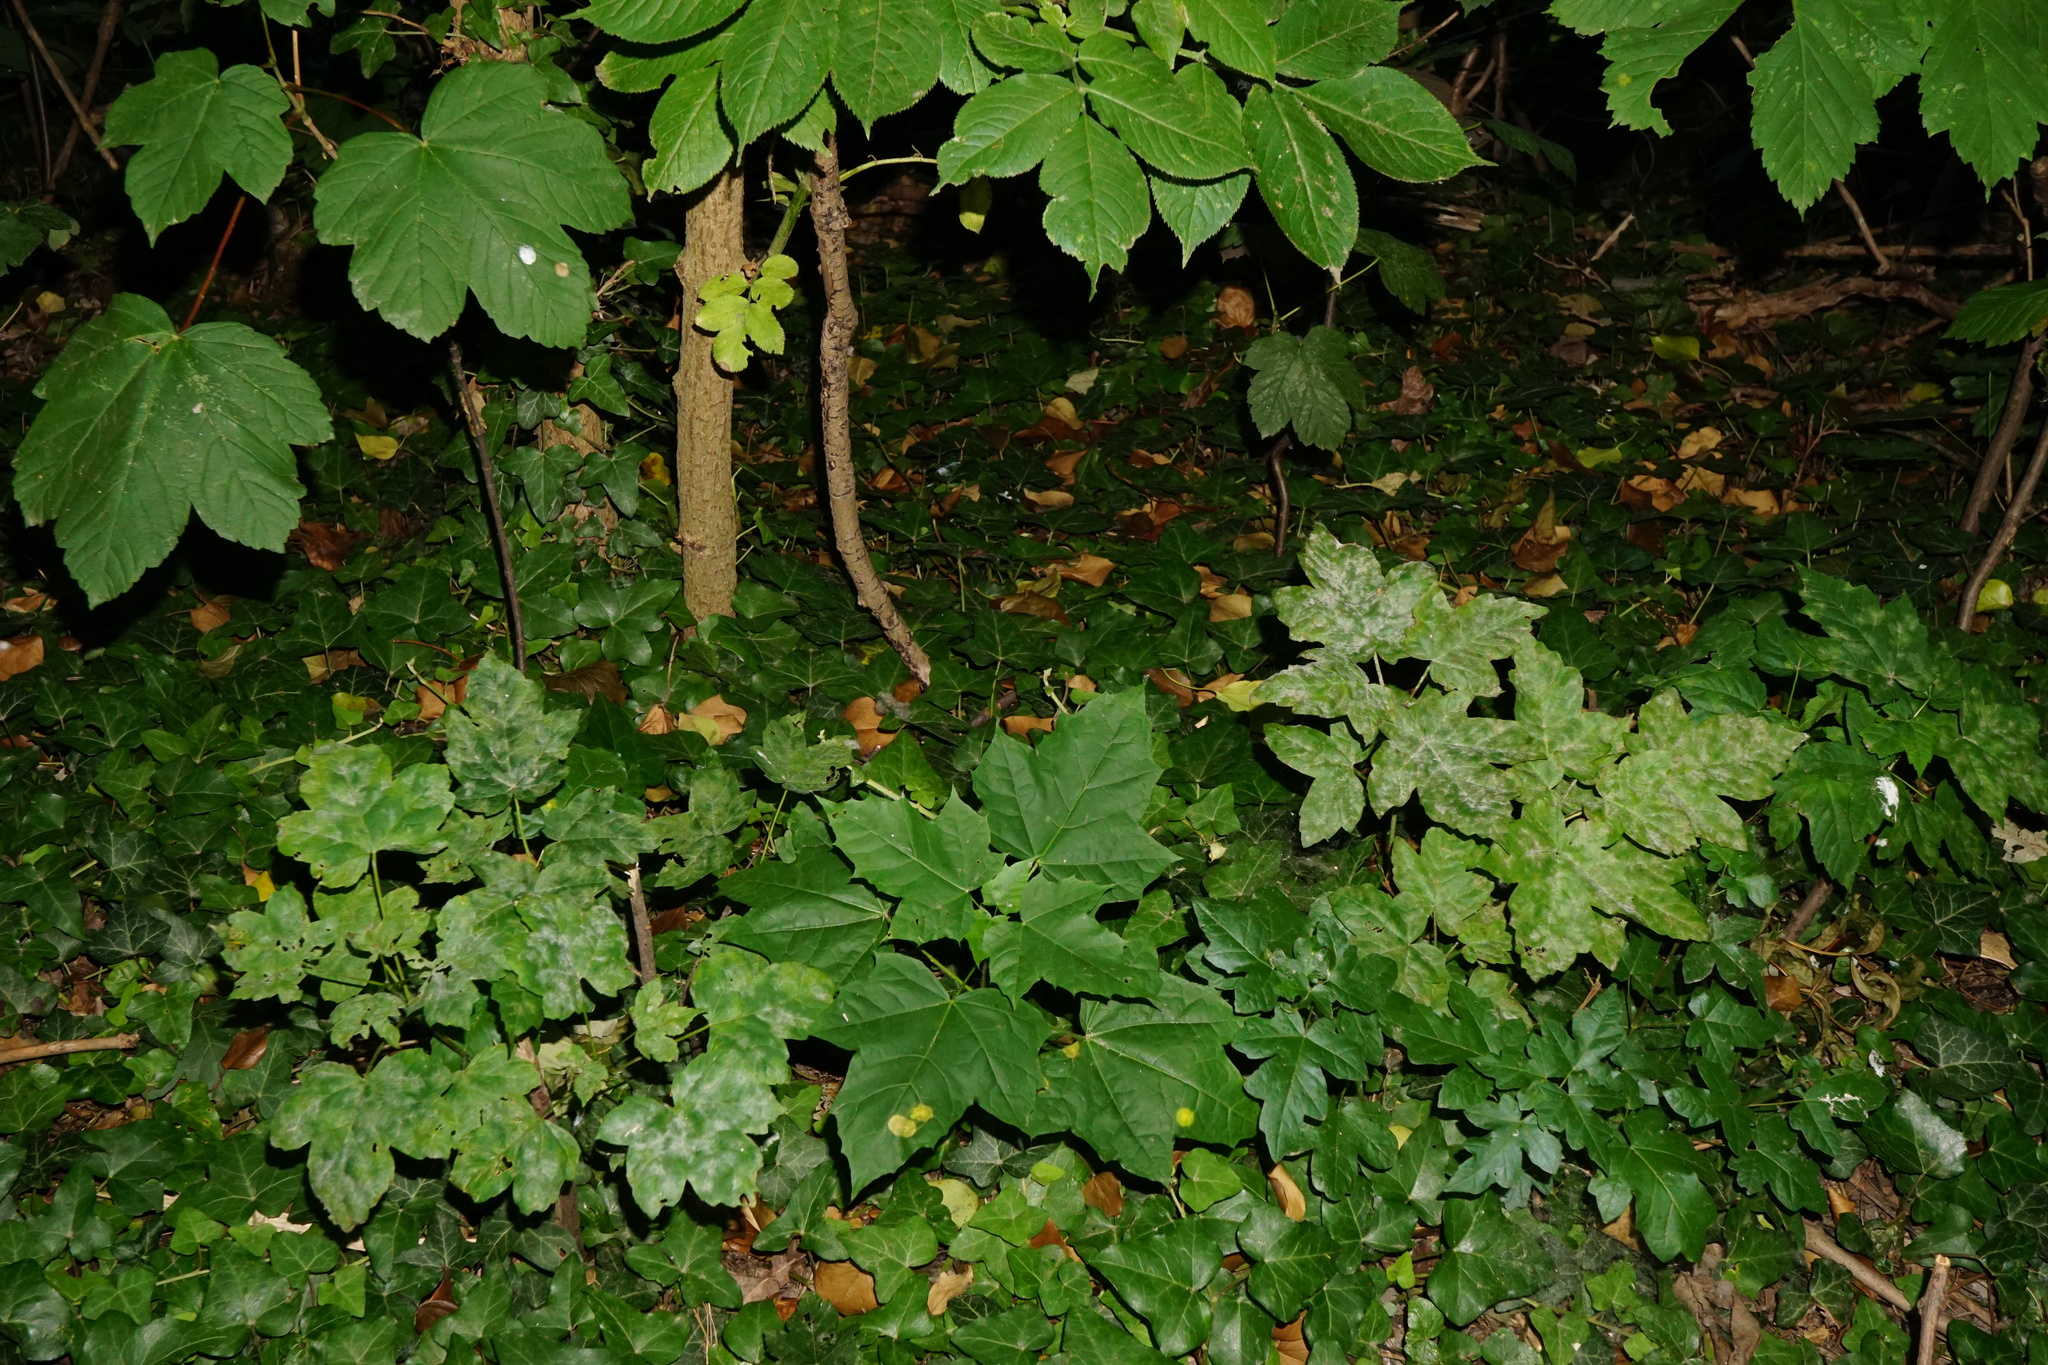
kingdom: Plantae
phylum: Tracheophyta
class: Magnoliopsida
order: Sapindales
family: Sapindaceae
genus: Acer
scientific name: Acer platanoides
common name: Norway maple
